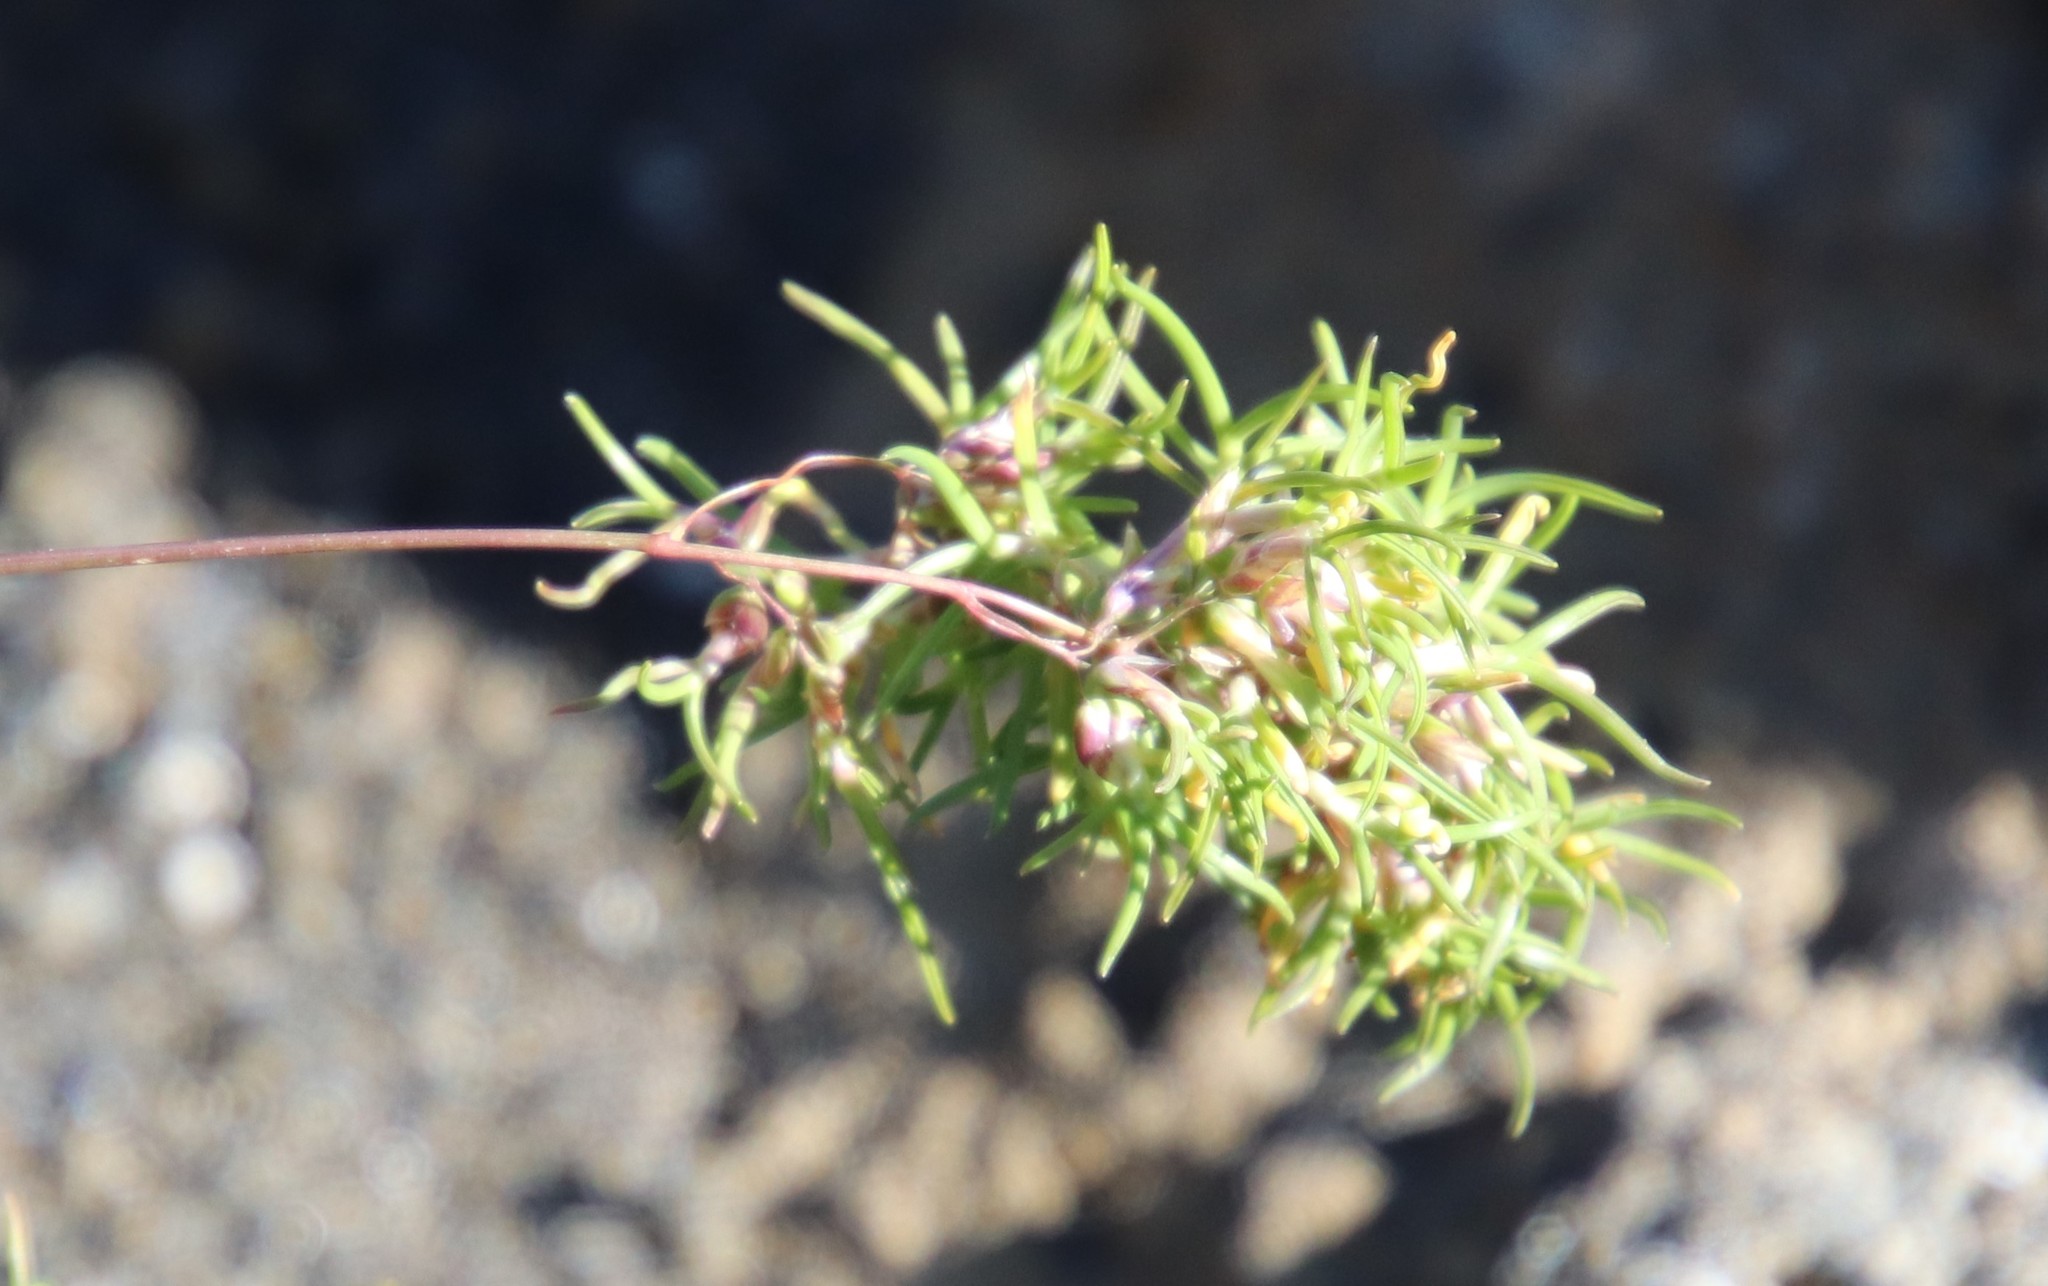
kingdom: Plantae
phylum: Tracheophyta
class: Liliopsida
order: Poales
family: Poaceae
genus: Poa
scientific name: Poa alpina
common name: Alpine bluegrass
